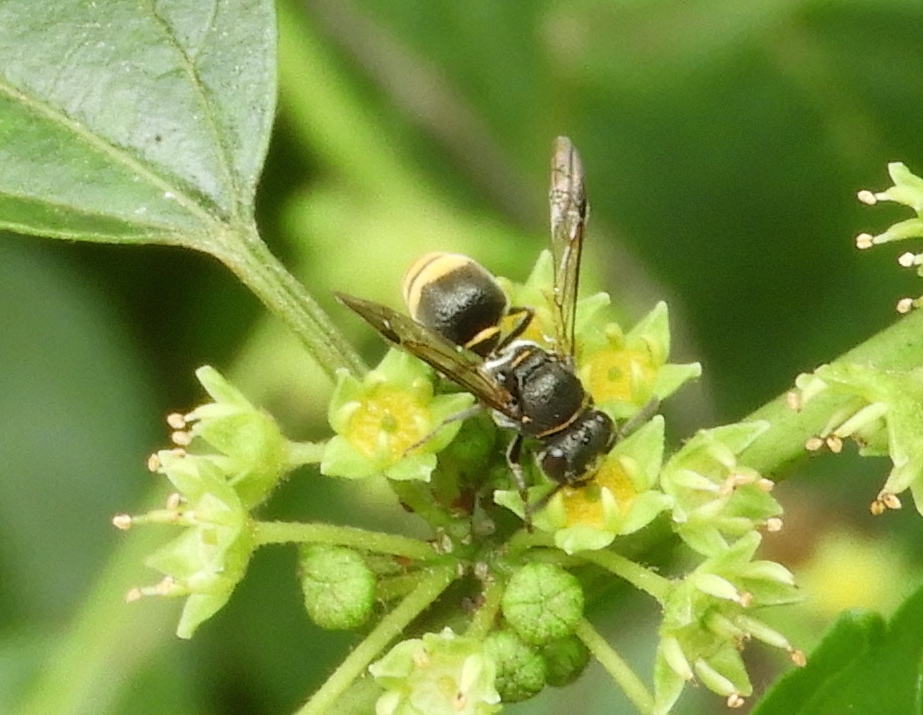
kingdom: Animalia
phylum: Arthropoda
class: Insecta
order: Hymenoptera
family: Vespidae
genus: Brachygastra
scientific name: Brachygastra azteca
